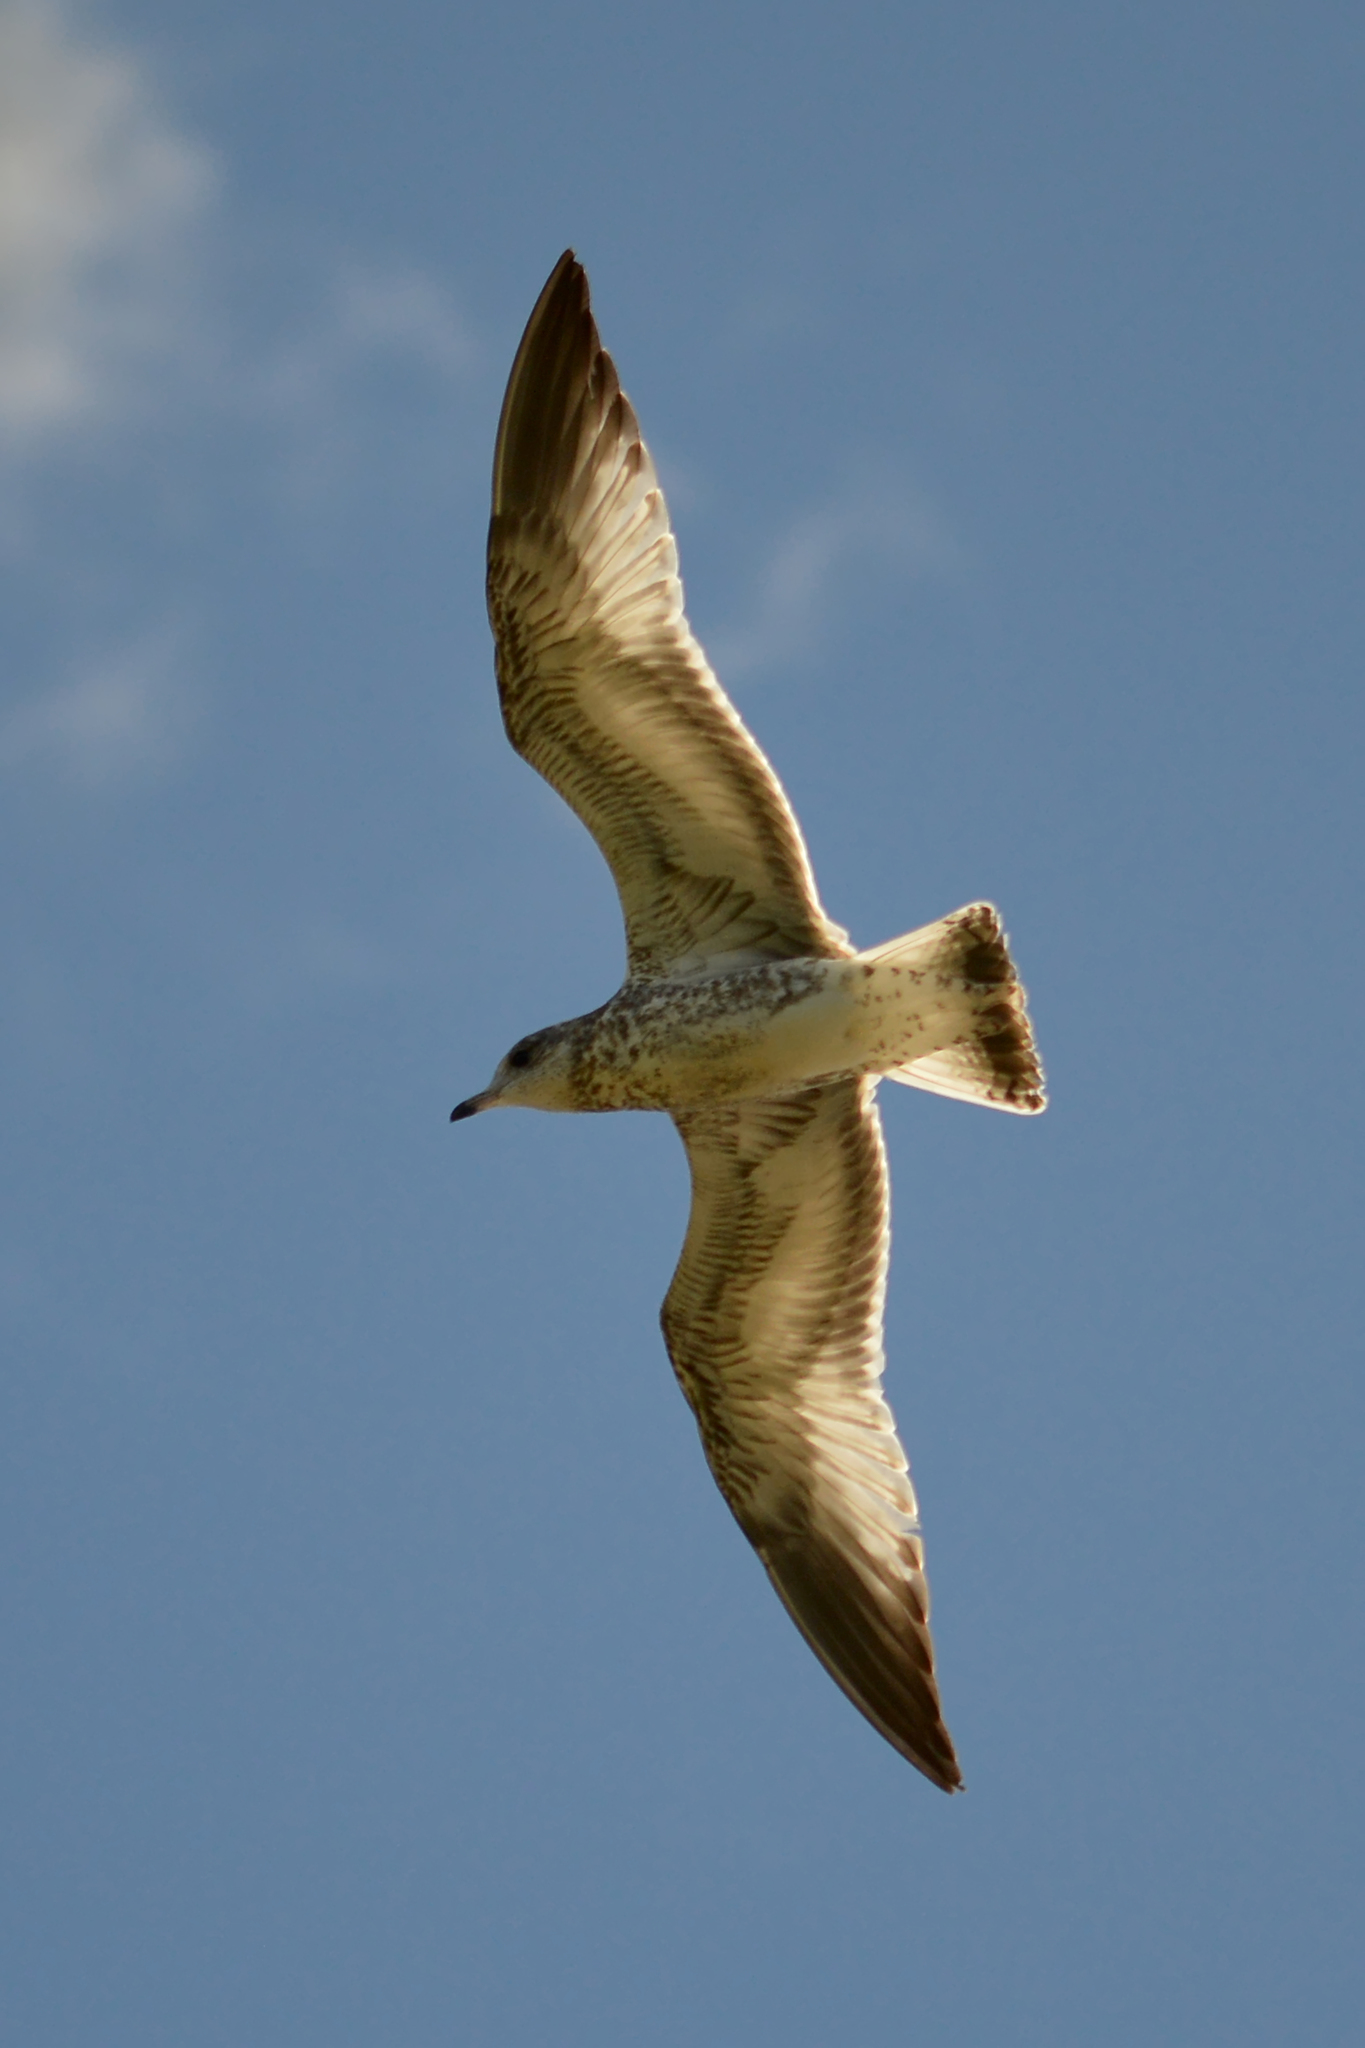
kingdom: Animalia
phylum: Chordata
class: Aves
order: Charadriiformes
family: Laridae
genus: Larus
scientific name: Larus delawarensis
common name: Ring-billed gull
